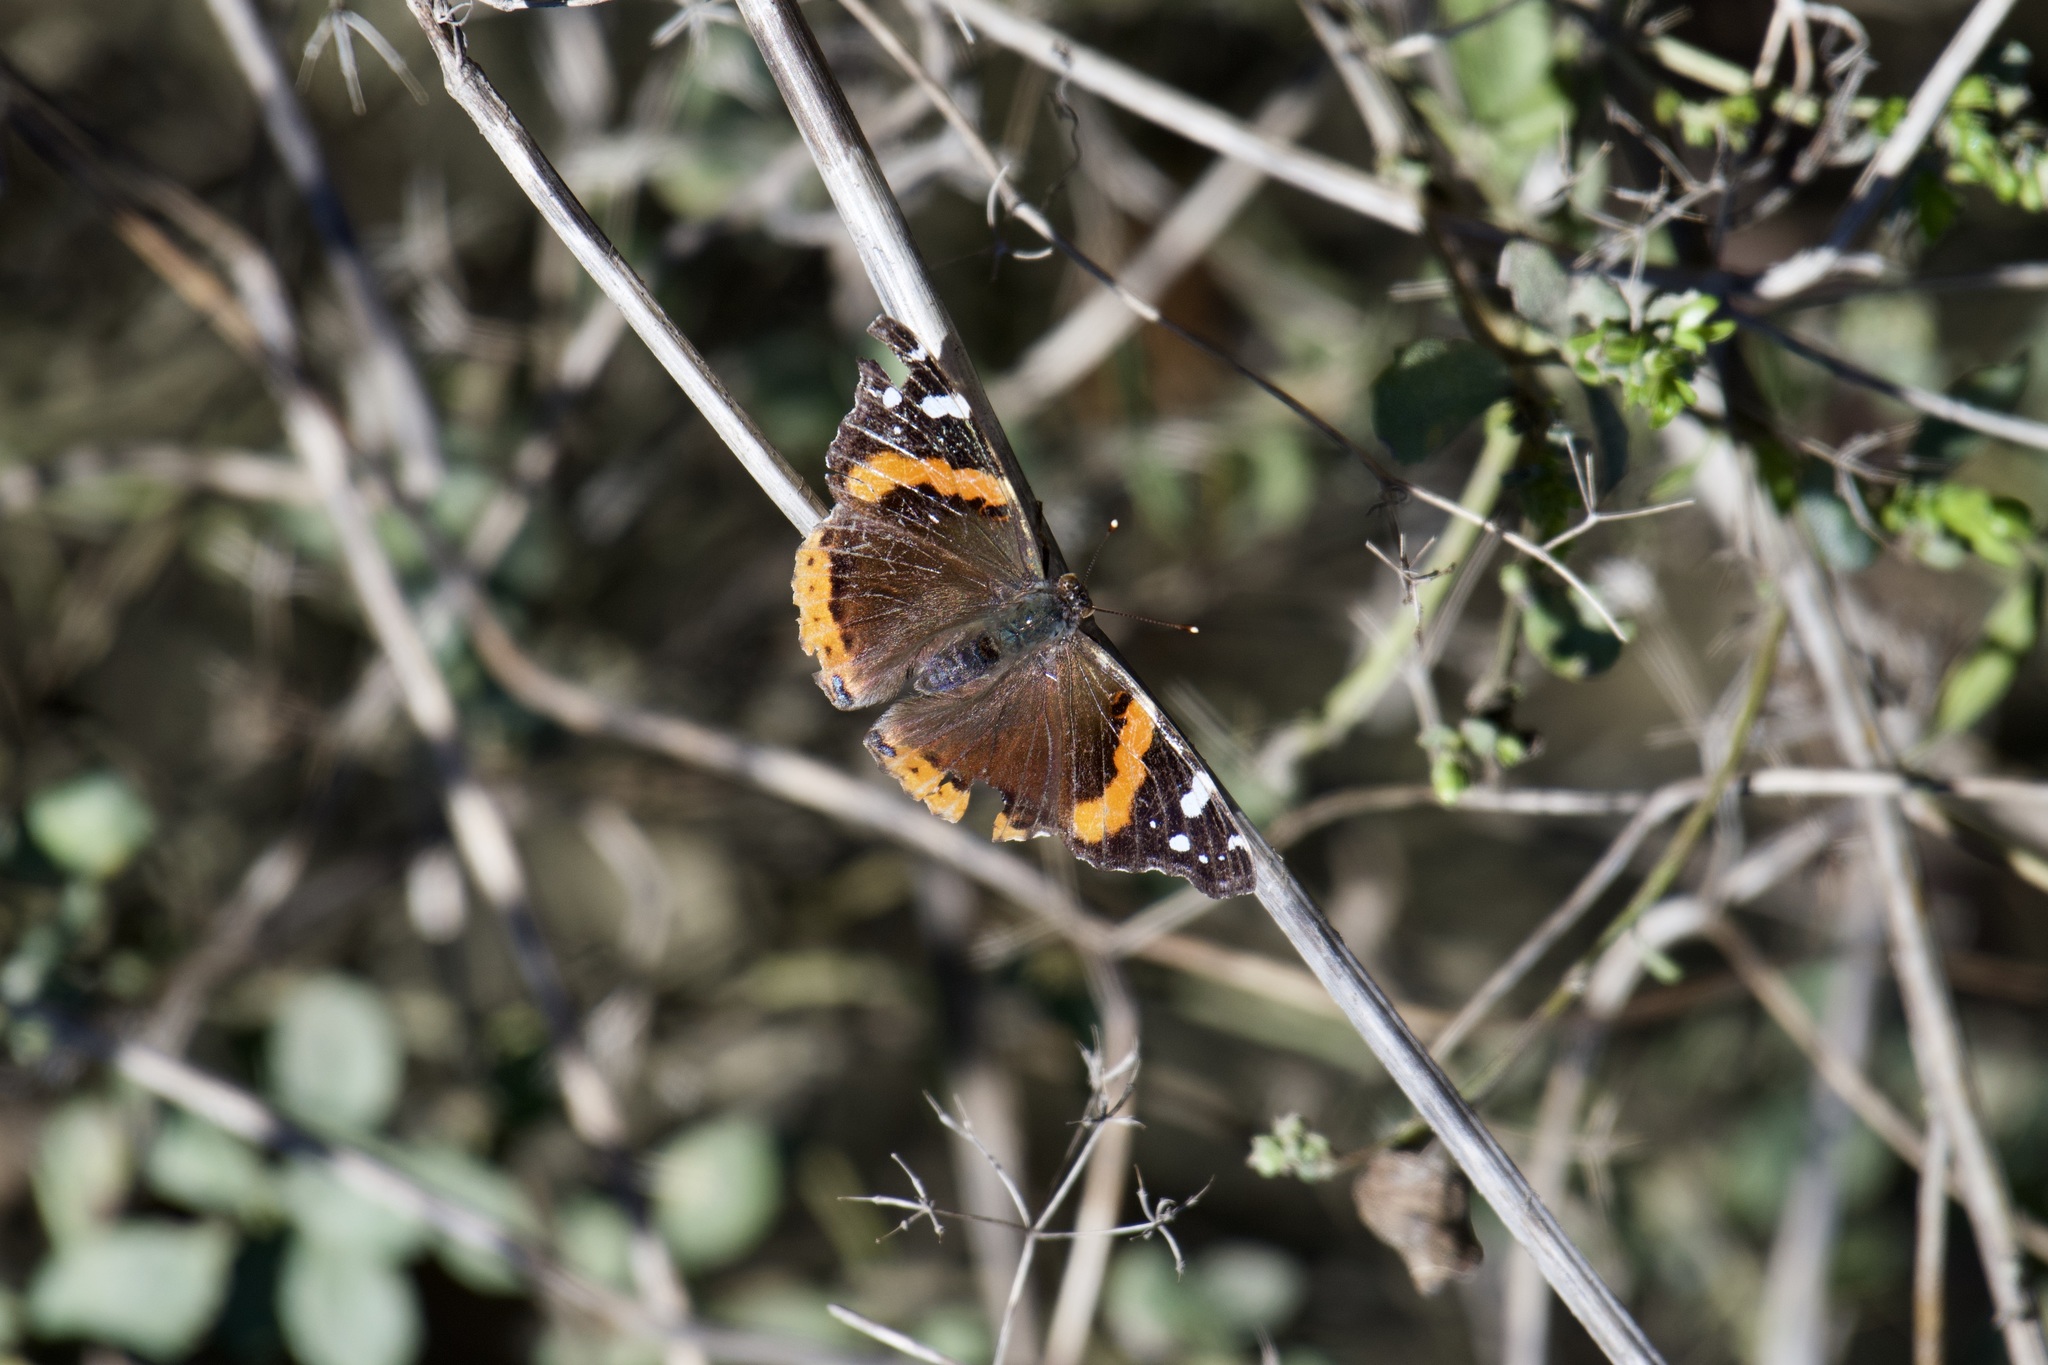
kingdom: Animalia
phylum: Arthropoda
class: Insecta
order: Lepidoptera
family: Nymphalidae
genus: Vanessa
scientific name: Vanessa atalanta
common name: Red admiral
